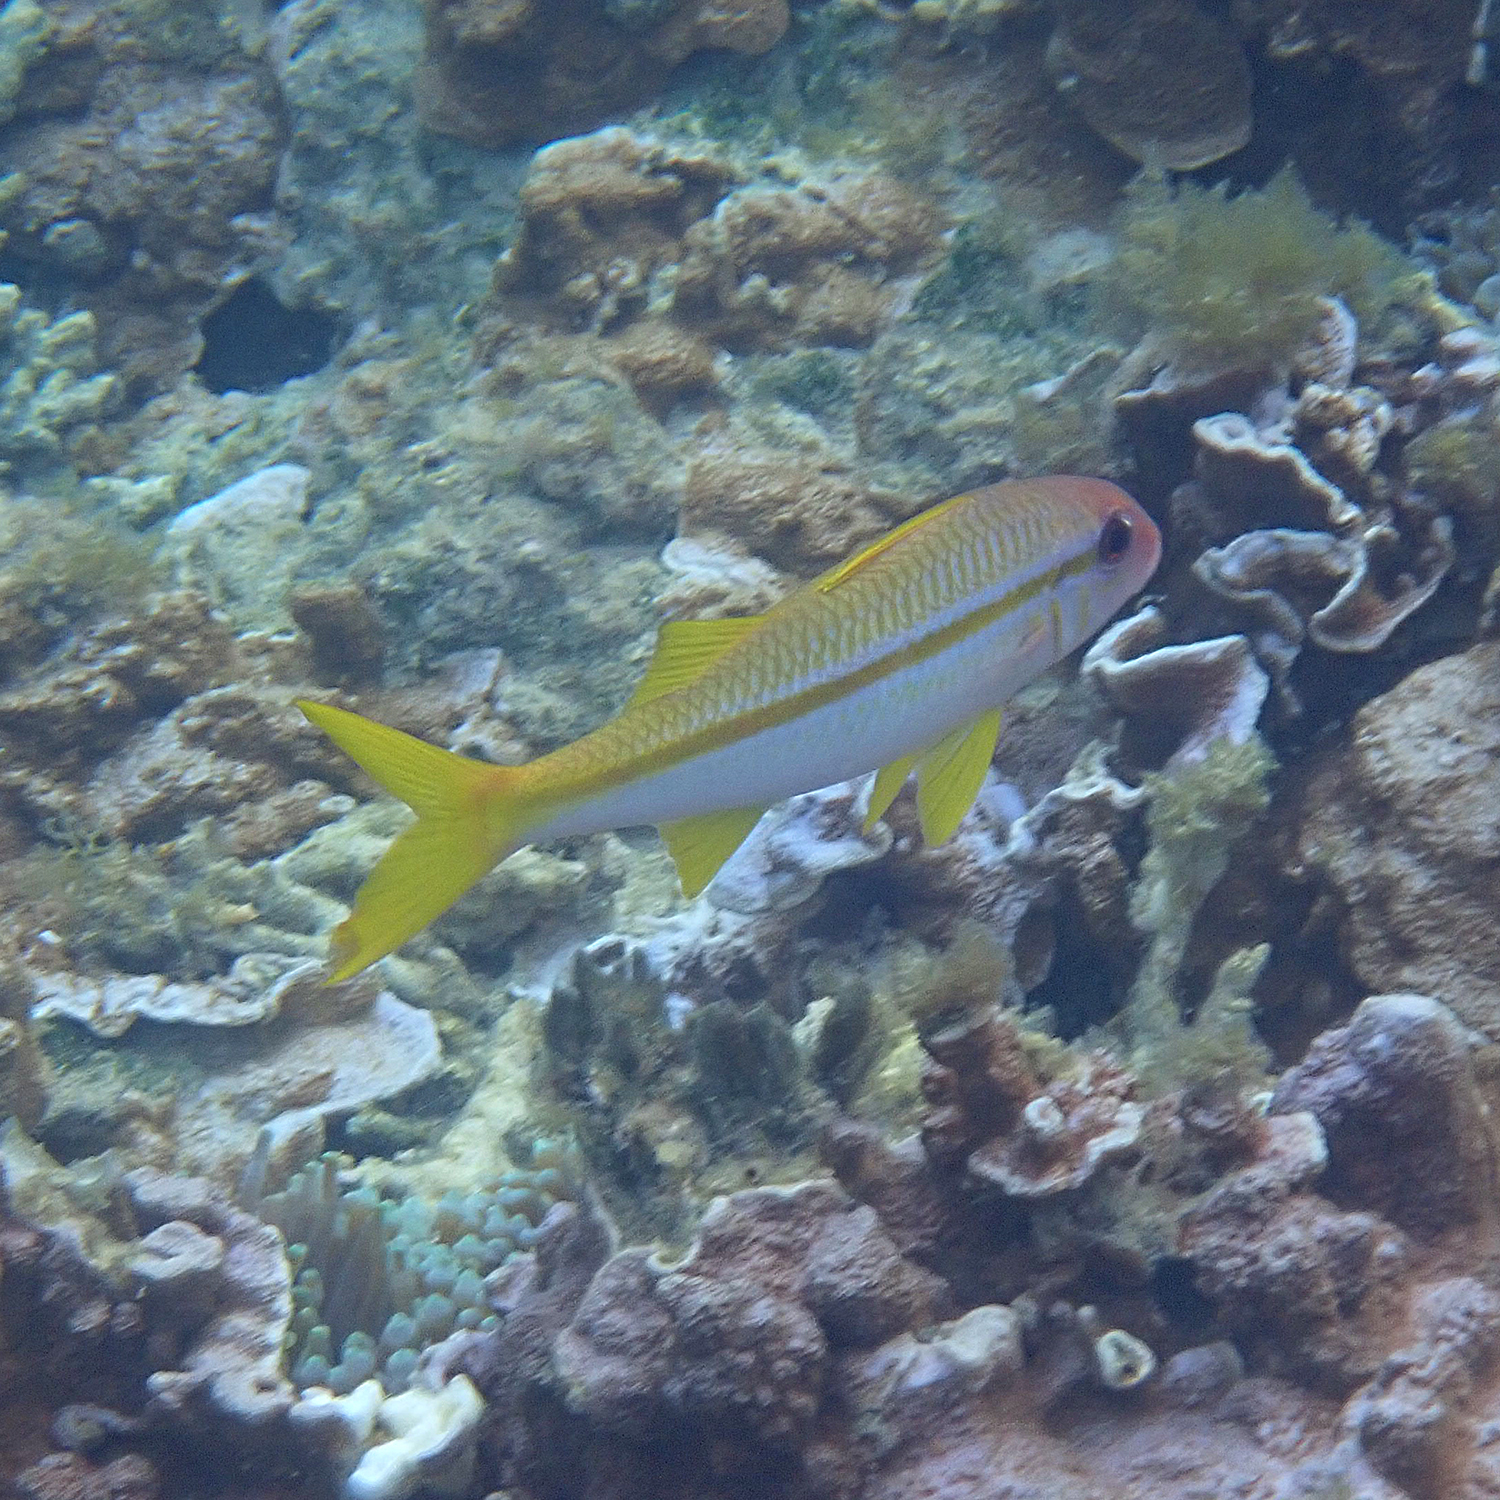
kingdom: Animalia
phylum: Chordata
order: Perciformes
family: Mullidae
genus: Mulloidichthys
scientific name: Mulloidichthys vanicolensis
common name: Yellowfin goatfish
